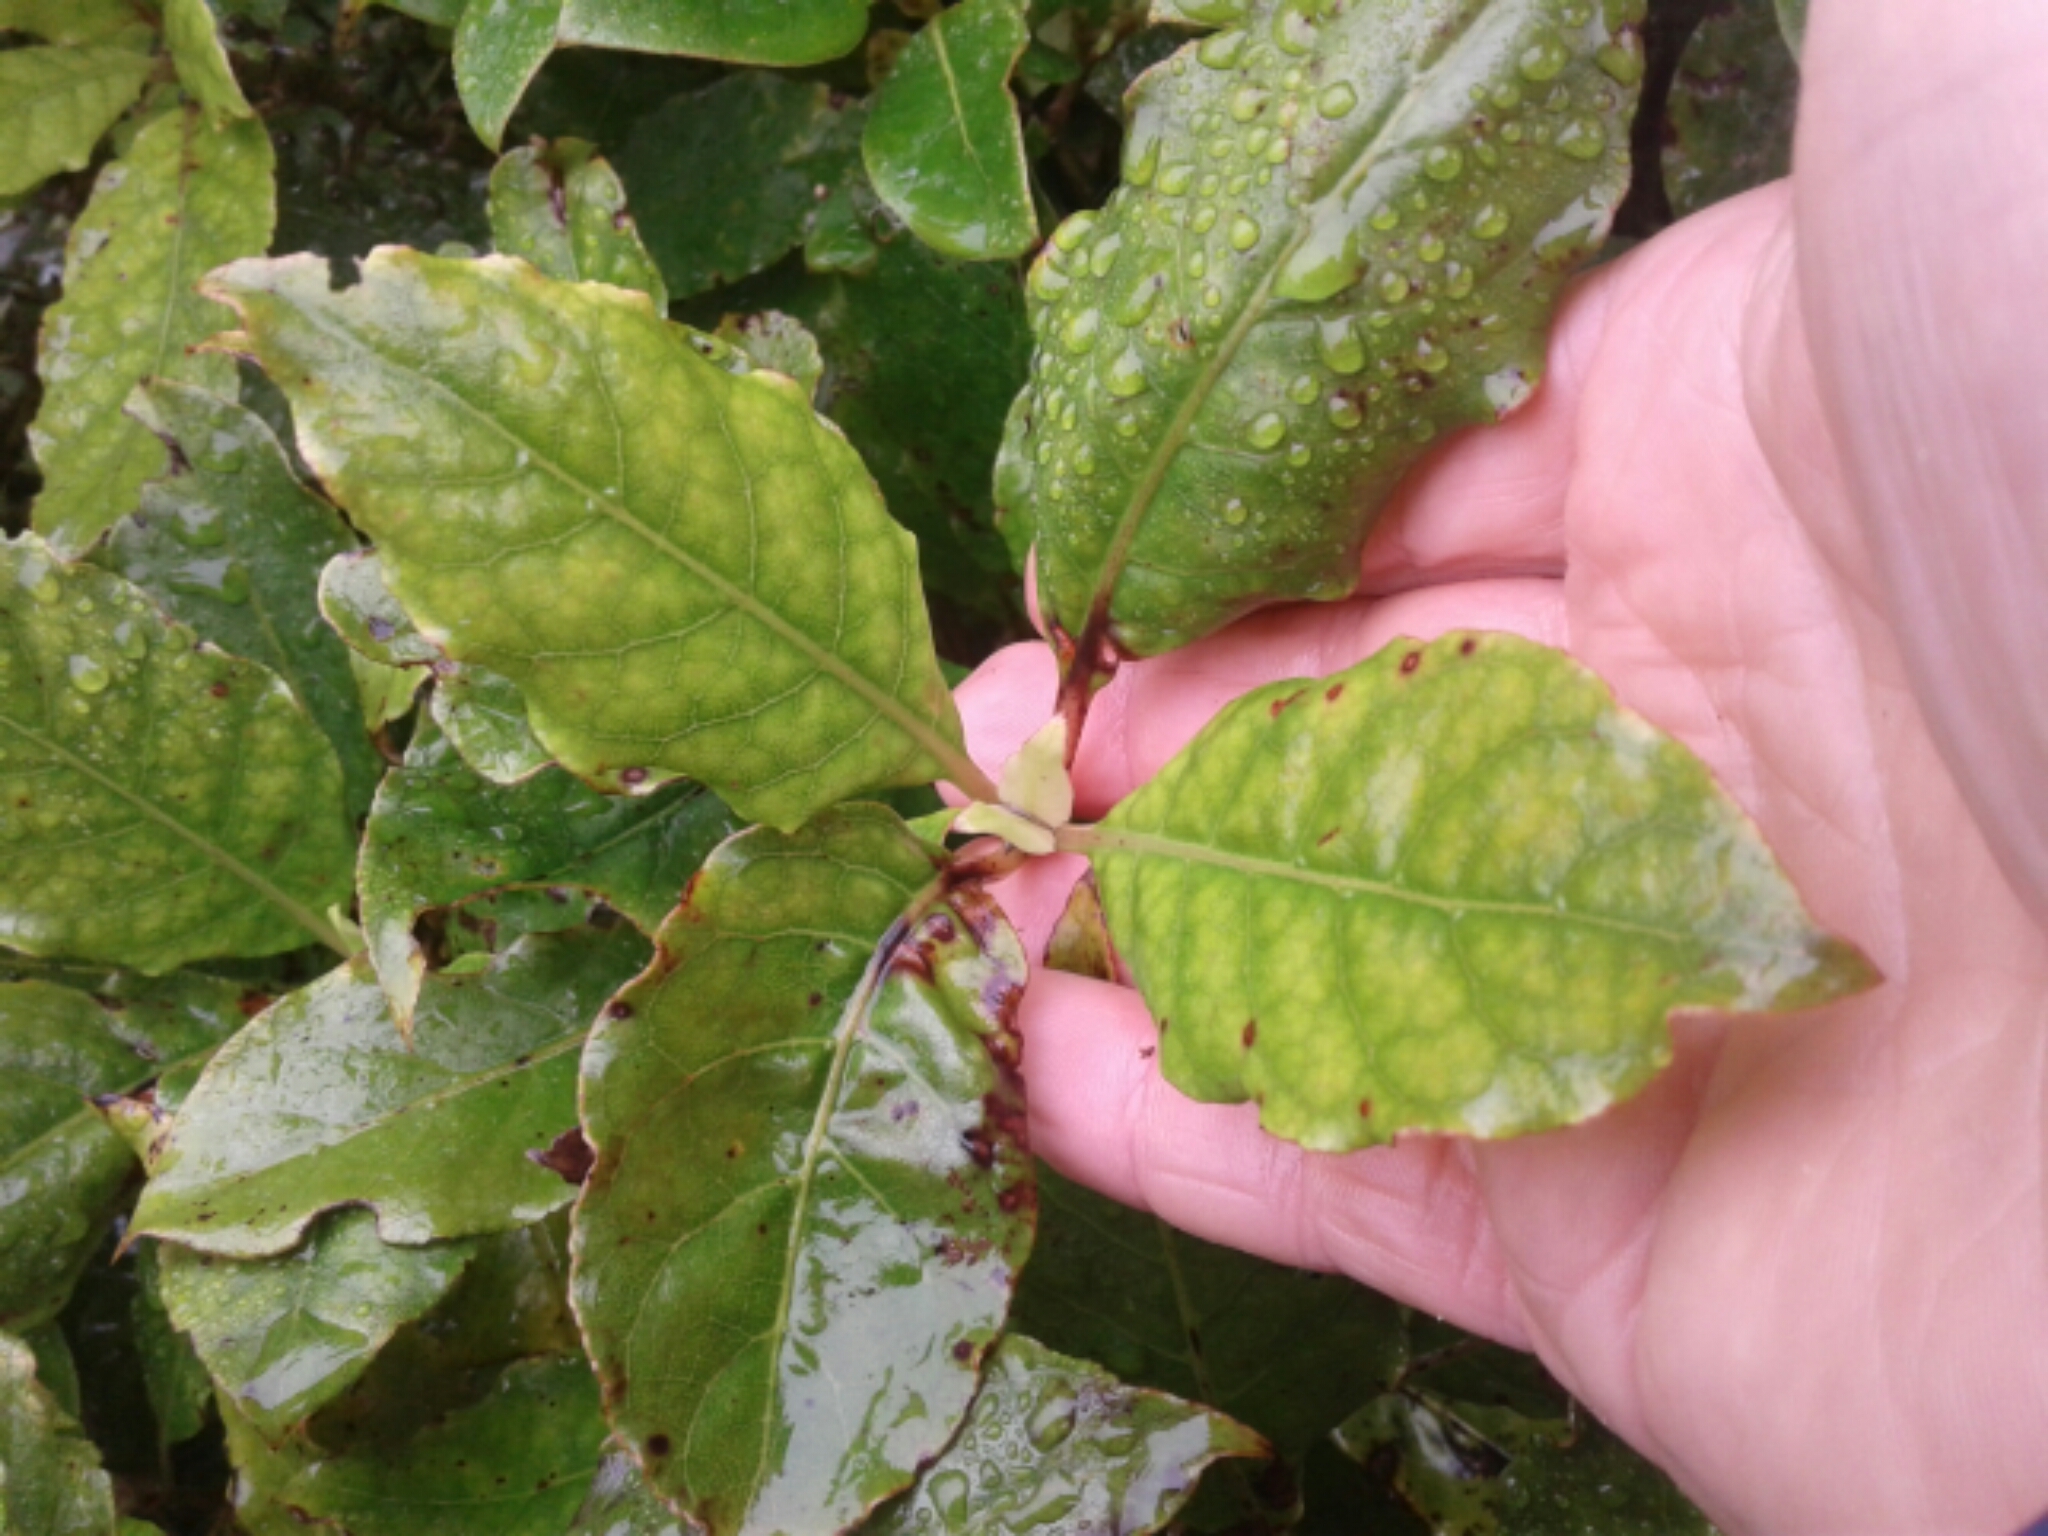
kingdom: Plantae
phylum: Tracheophyta
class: Magnoliopsida
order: Gentianales
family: Rubiaceae
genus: Coprosma
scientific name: Coprosma autumnalis
